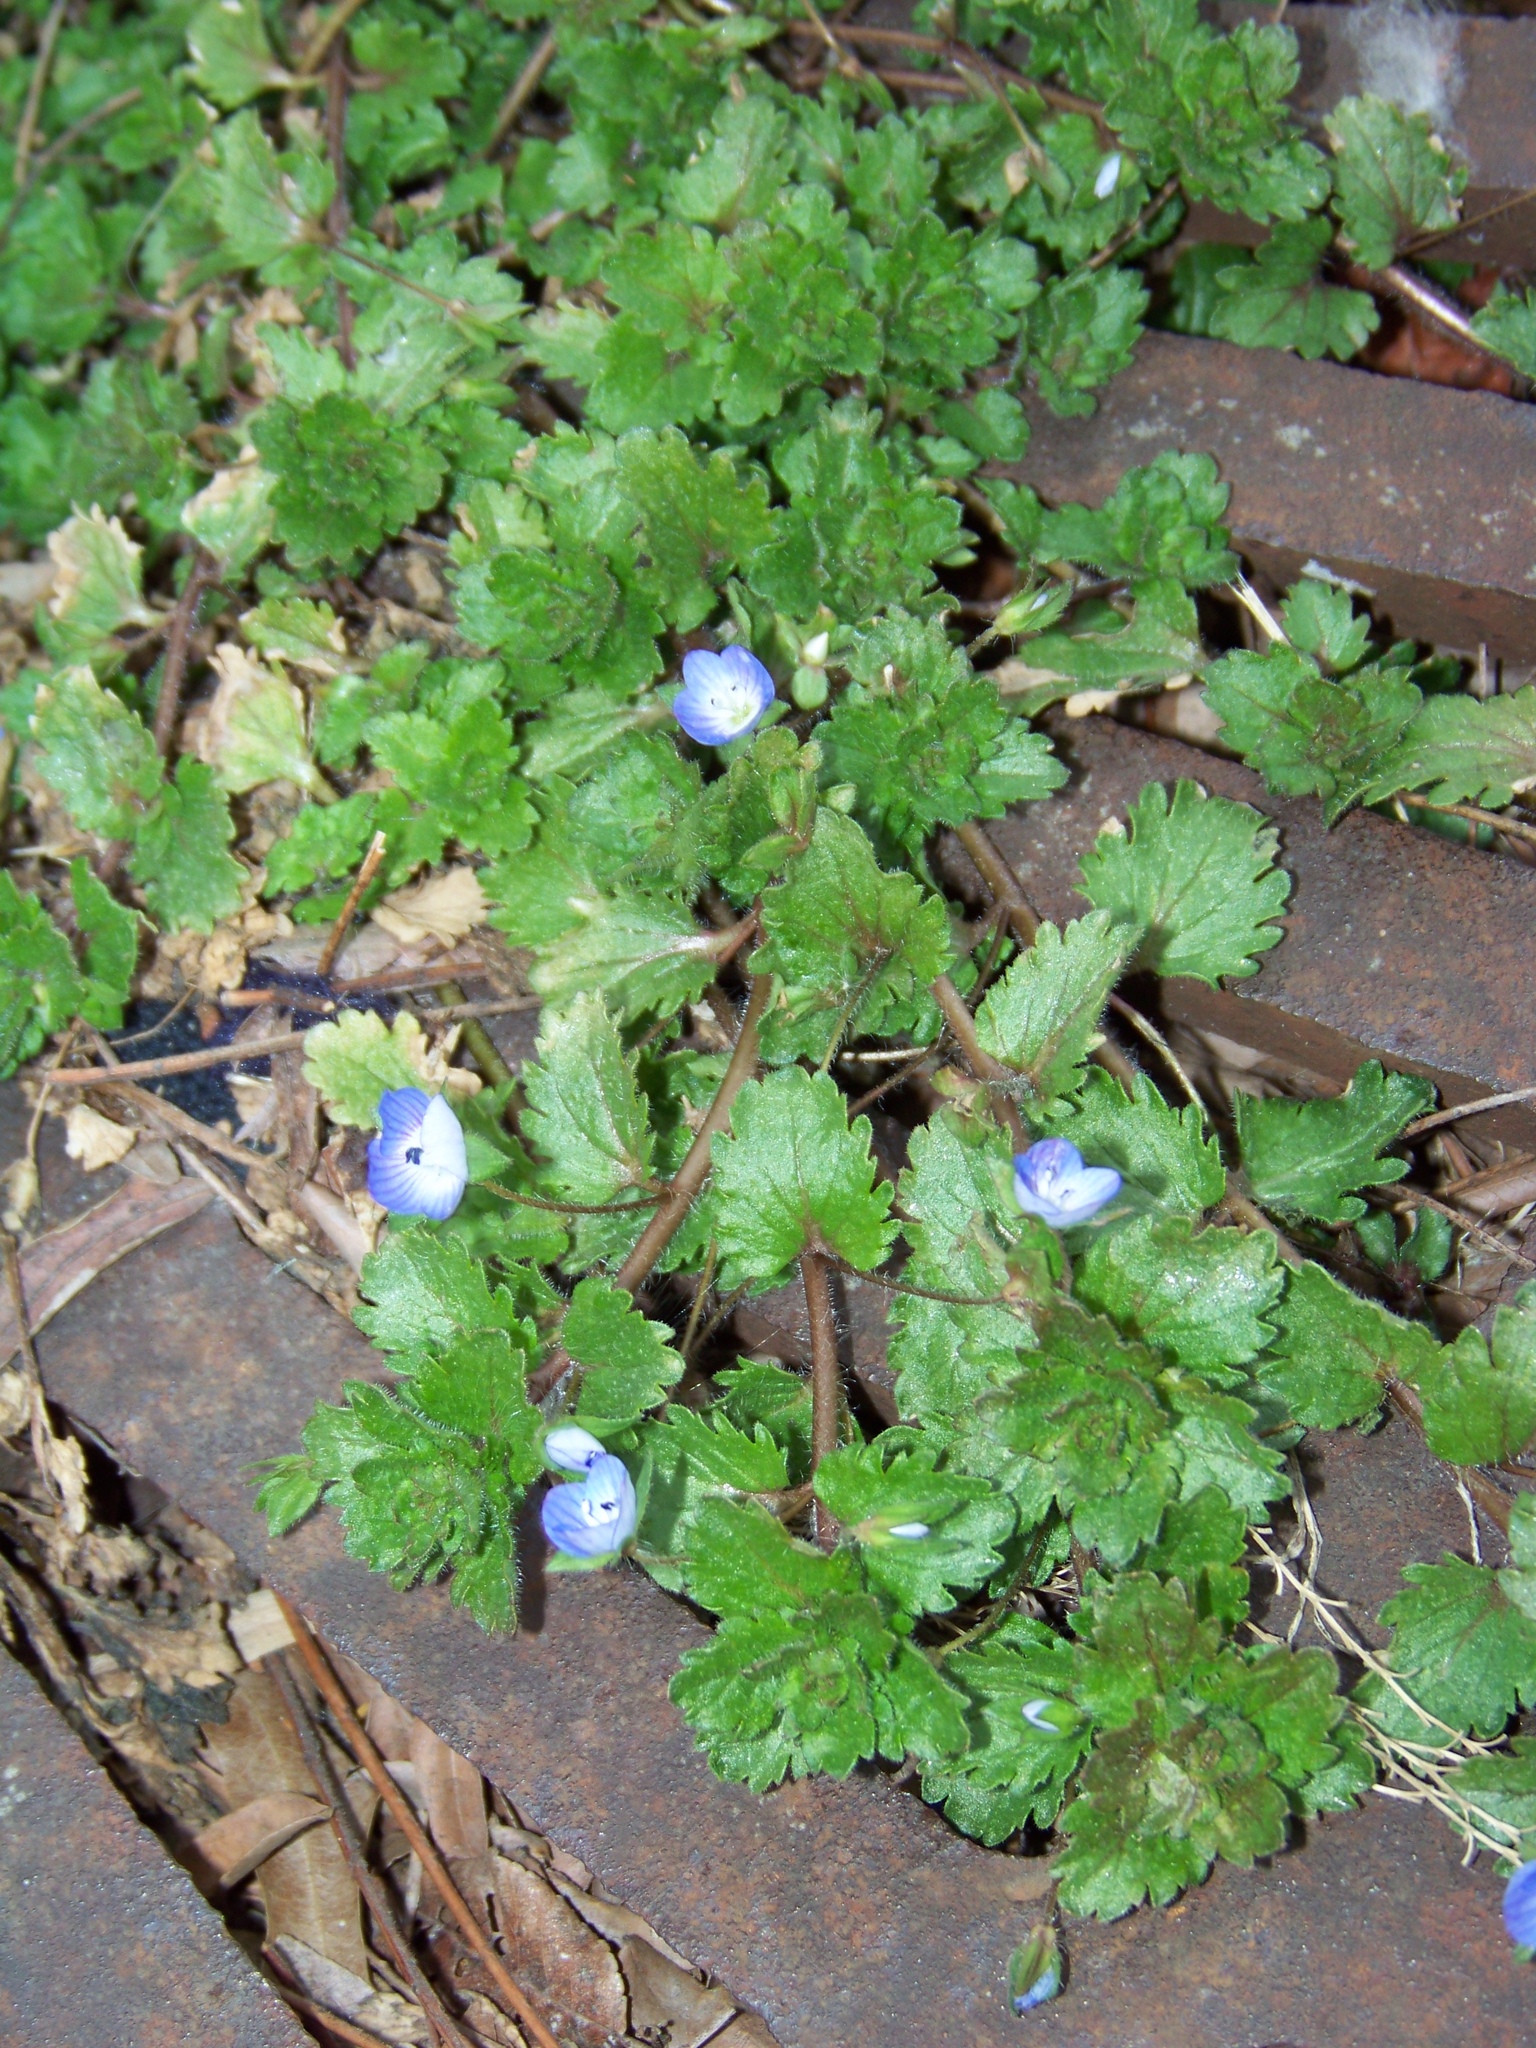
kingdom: Plantae
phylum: Tracheophyta
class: Magnoliopsida
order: Lamiales
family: Plantaginaceae
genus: Veronica
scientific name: Veronica persica
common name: Common field-speedwell
